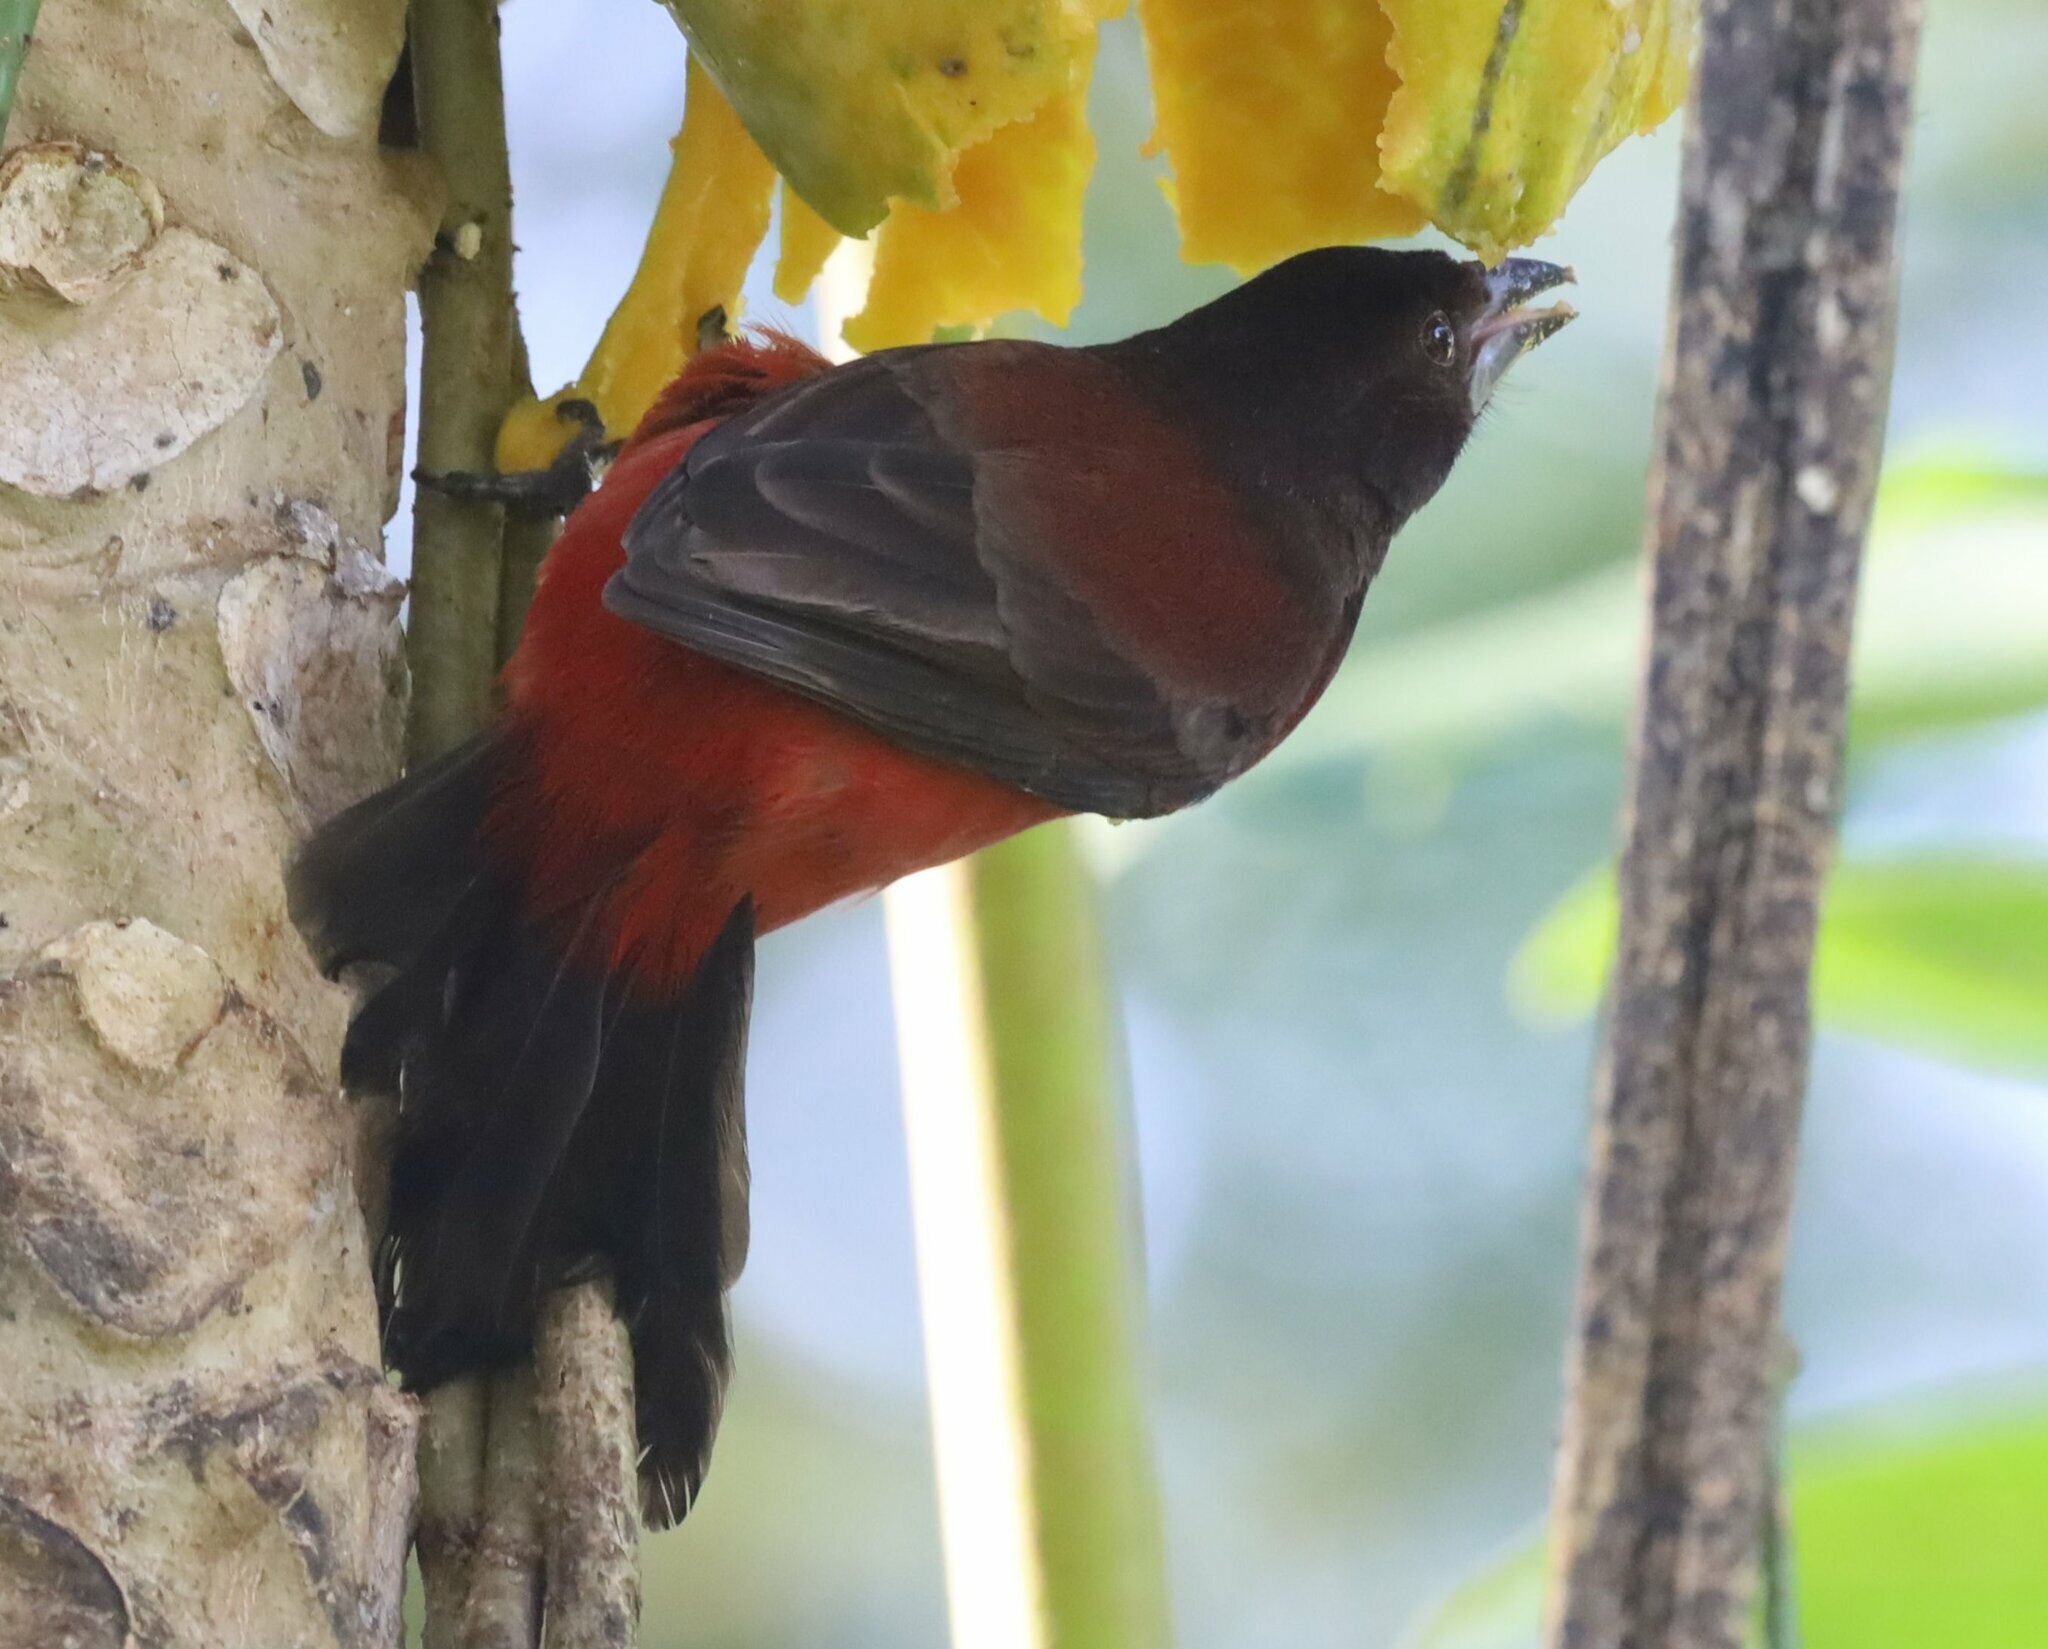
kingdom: Animalia
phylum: Chordata
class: Aves
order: Passeriformes
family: Thraupidae
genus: Ramphocelus
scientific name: Ramphocelus dimidiatus
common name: Crimson-backed tanager
